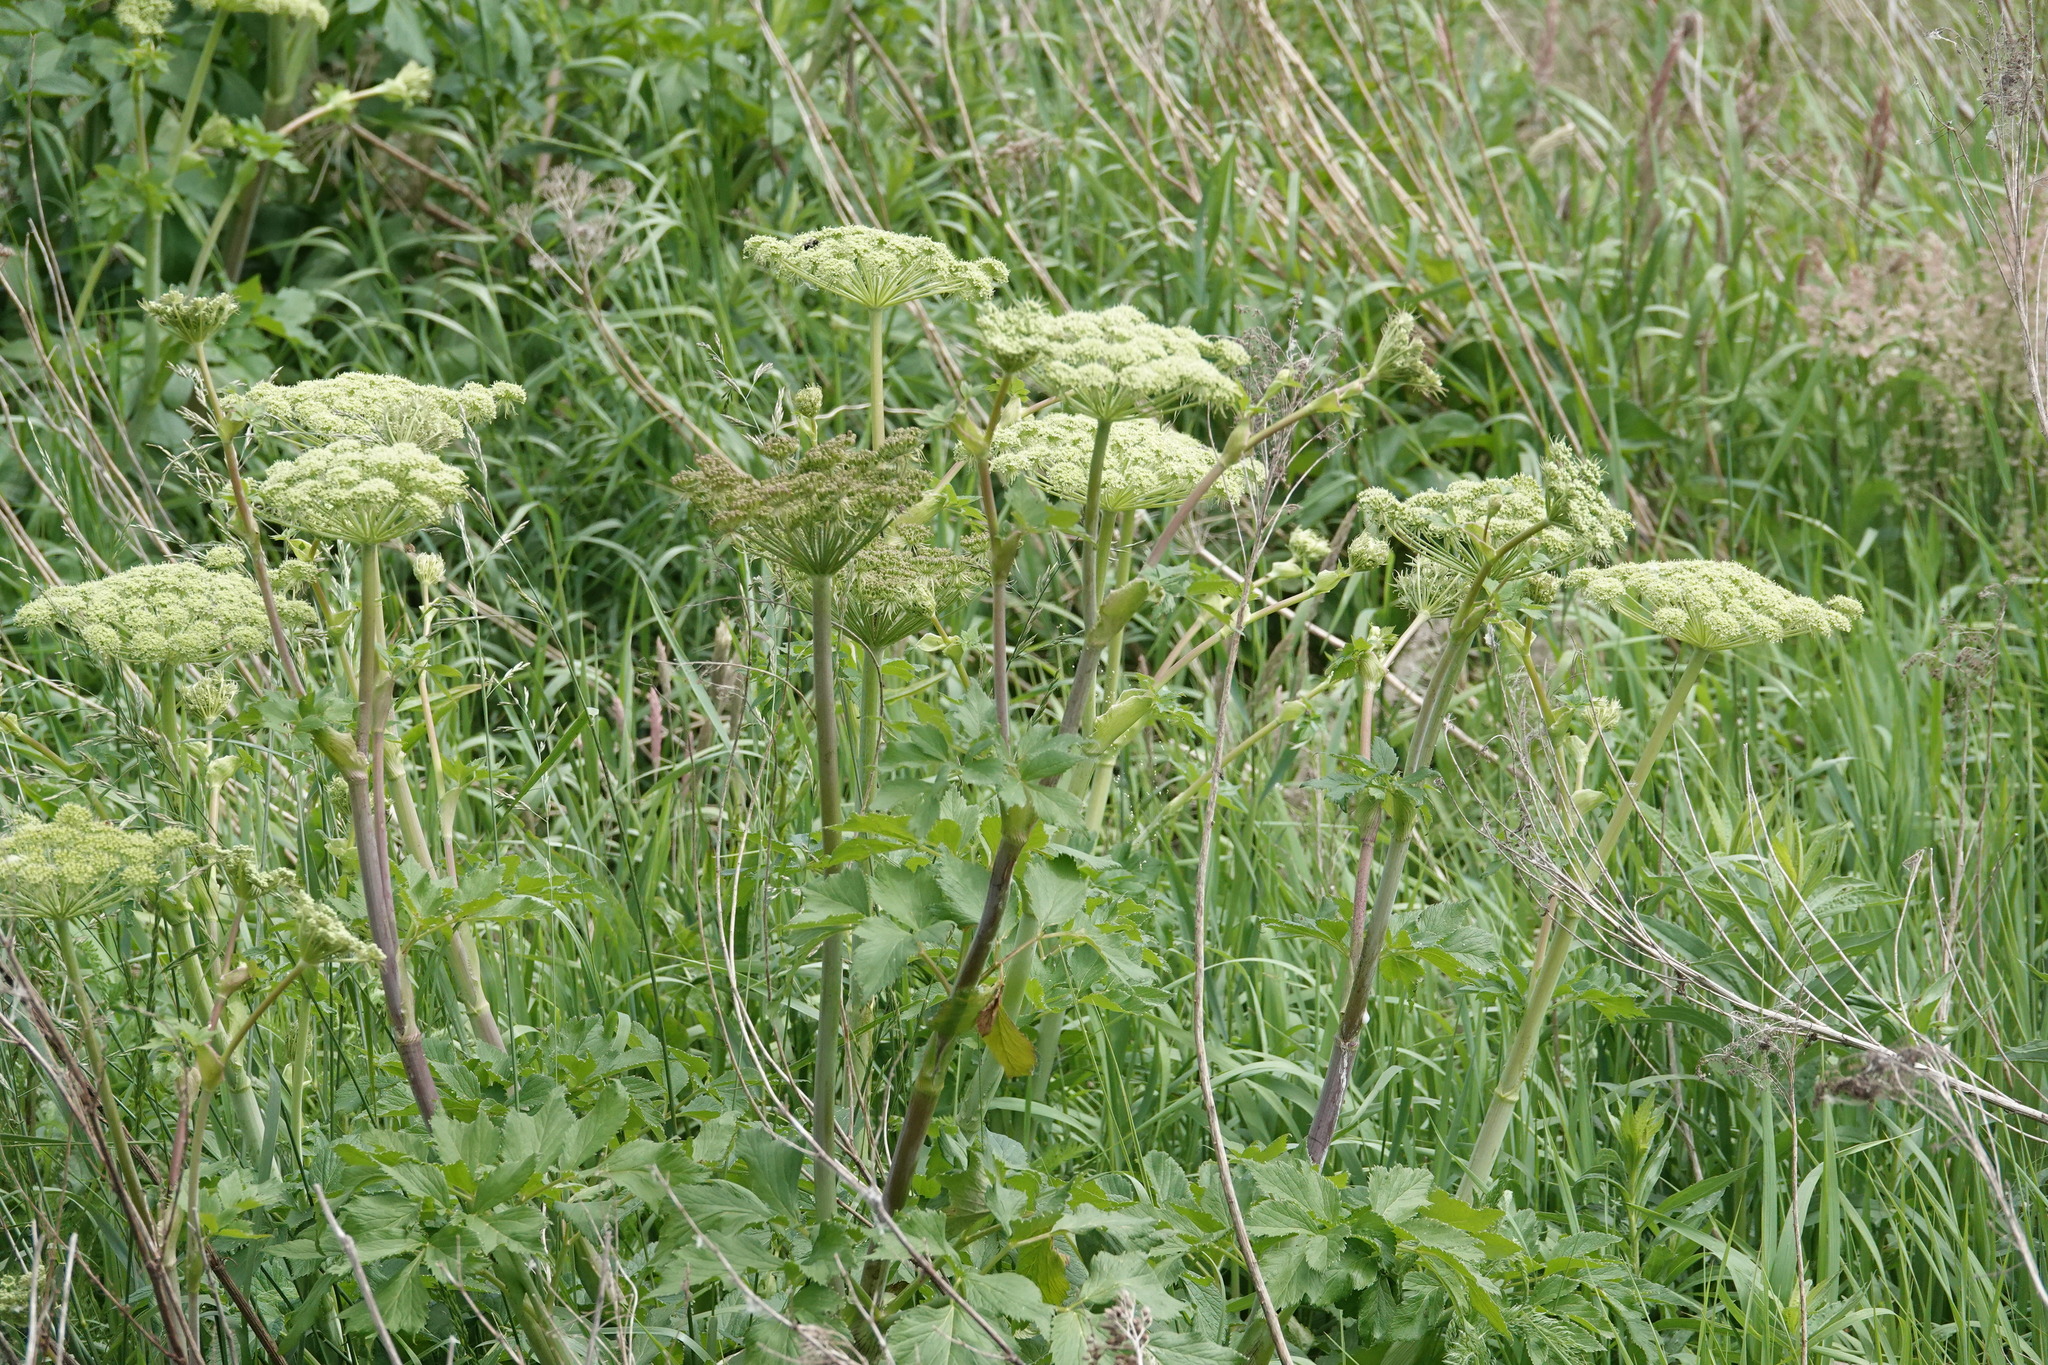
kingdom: Plantae
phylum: Tracheophyta
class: Magnoliopsida
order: Apiales
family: Apiaceae
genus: Angelica
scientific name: Angelica lucida
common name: Seabeach angelica
